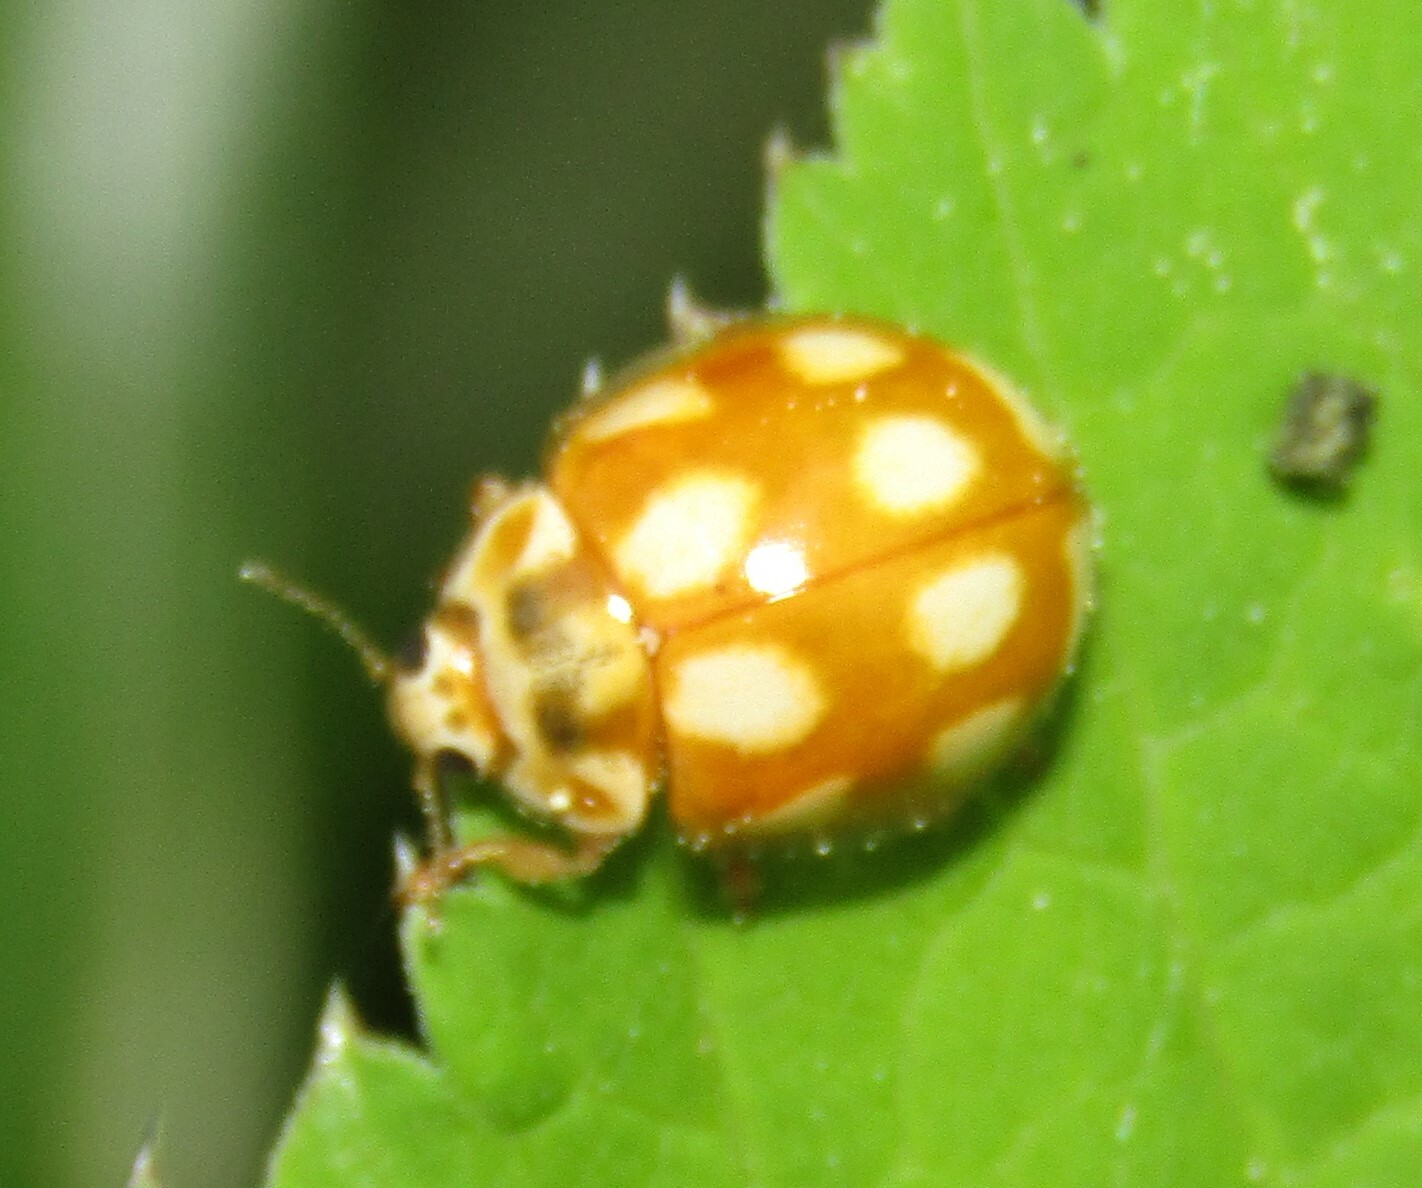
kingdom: Animalia
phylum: Arthropoda
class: Insecta
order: Coleoptera
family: Coccinellidae
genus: Calvia
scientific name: Calvia decemguttata
